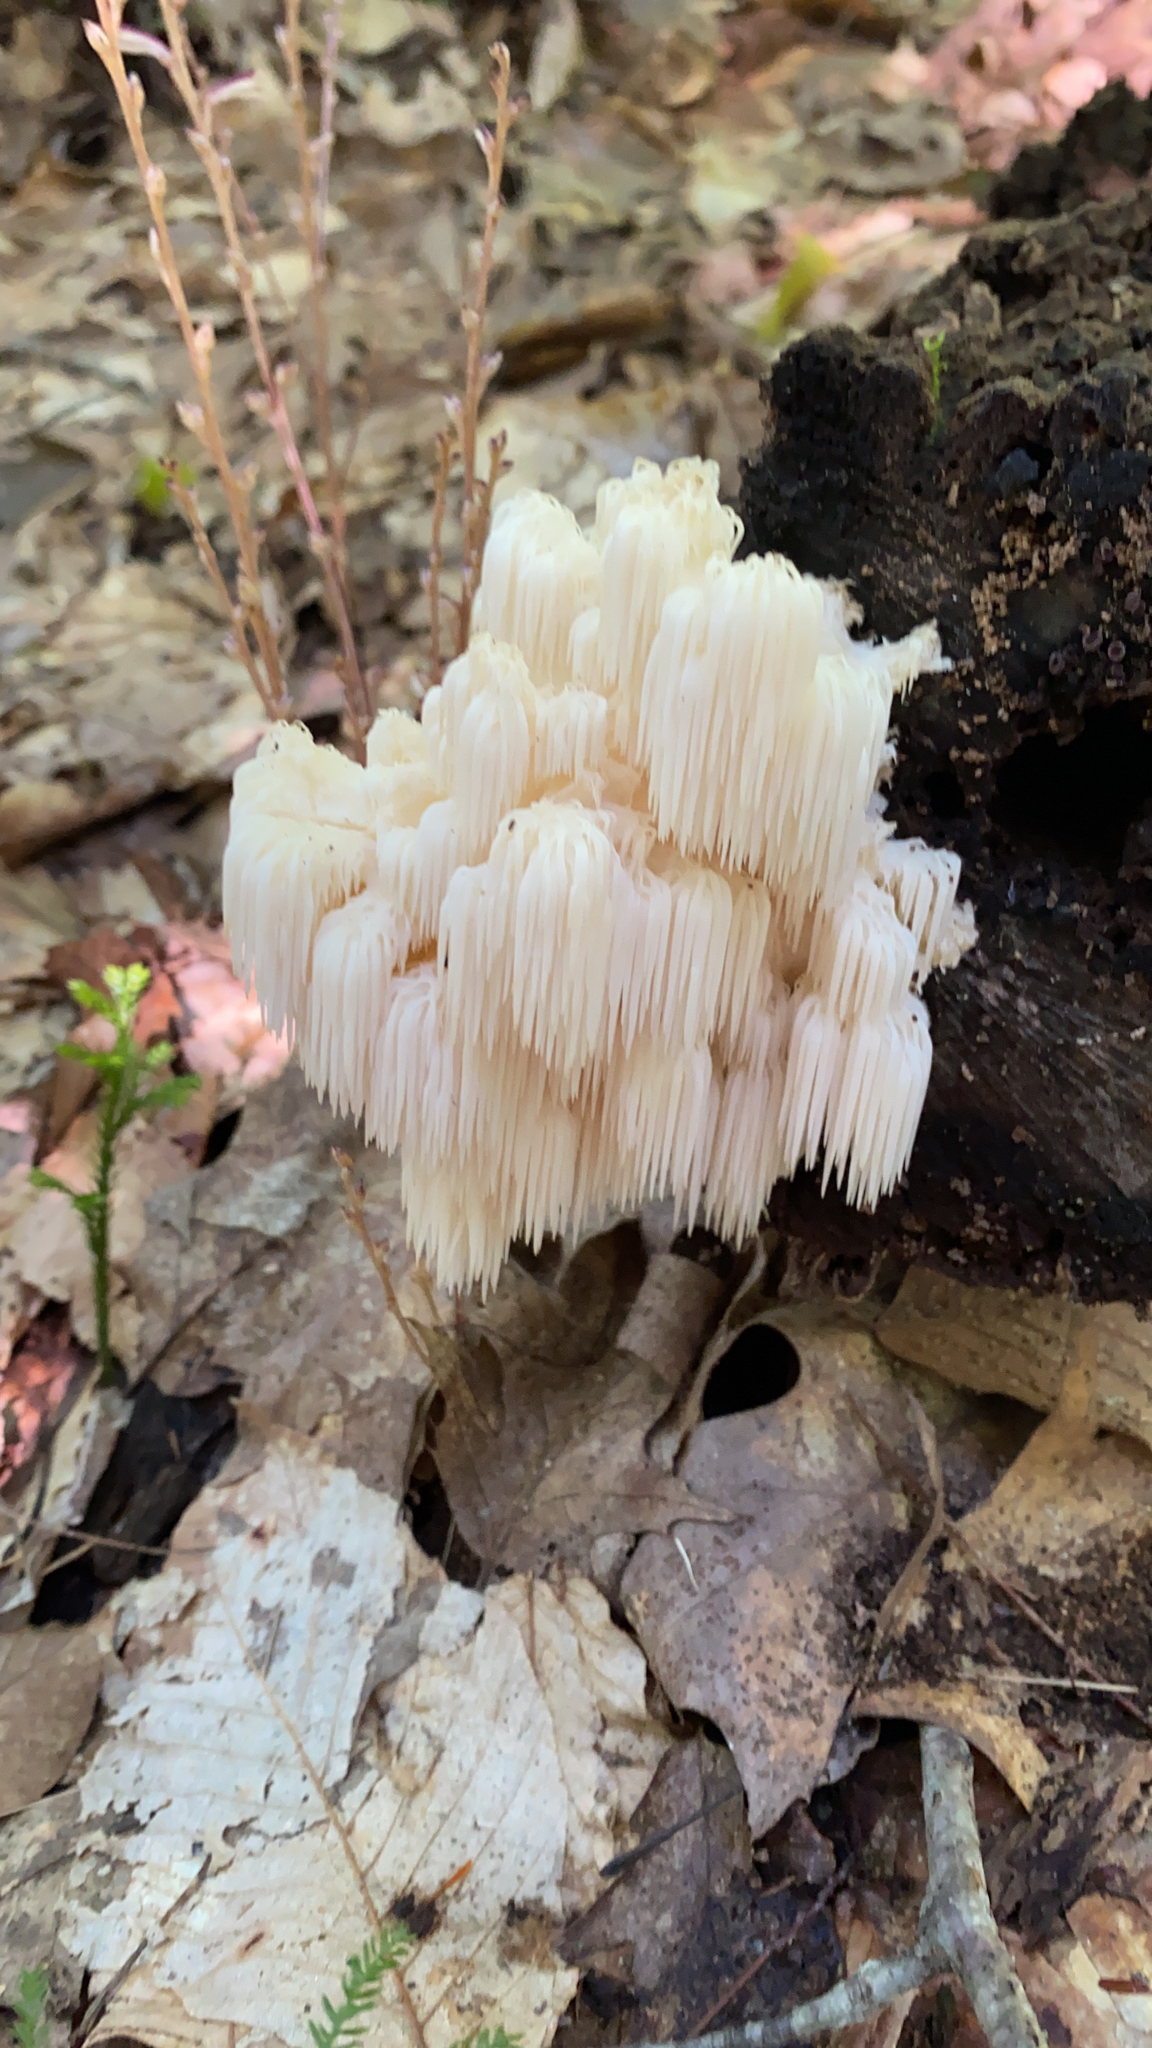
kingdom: Fungi
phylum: Basidiomycota
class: Agaricomycetes
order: Russulales
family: Hericiaceae
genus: Hericium
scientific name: Hericium americanum
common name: Bear's head tooth
